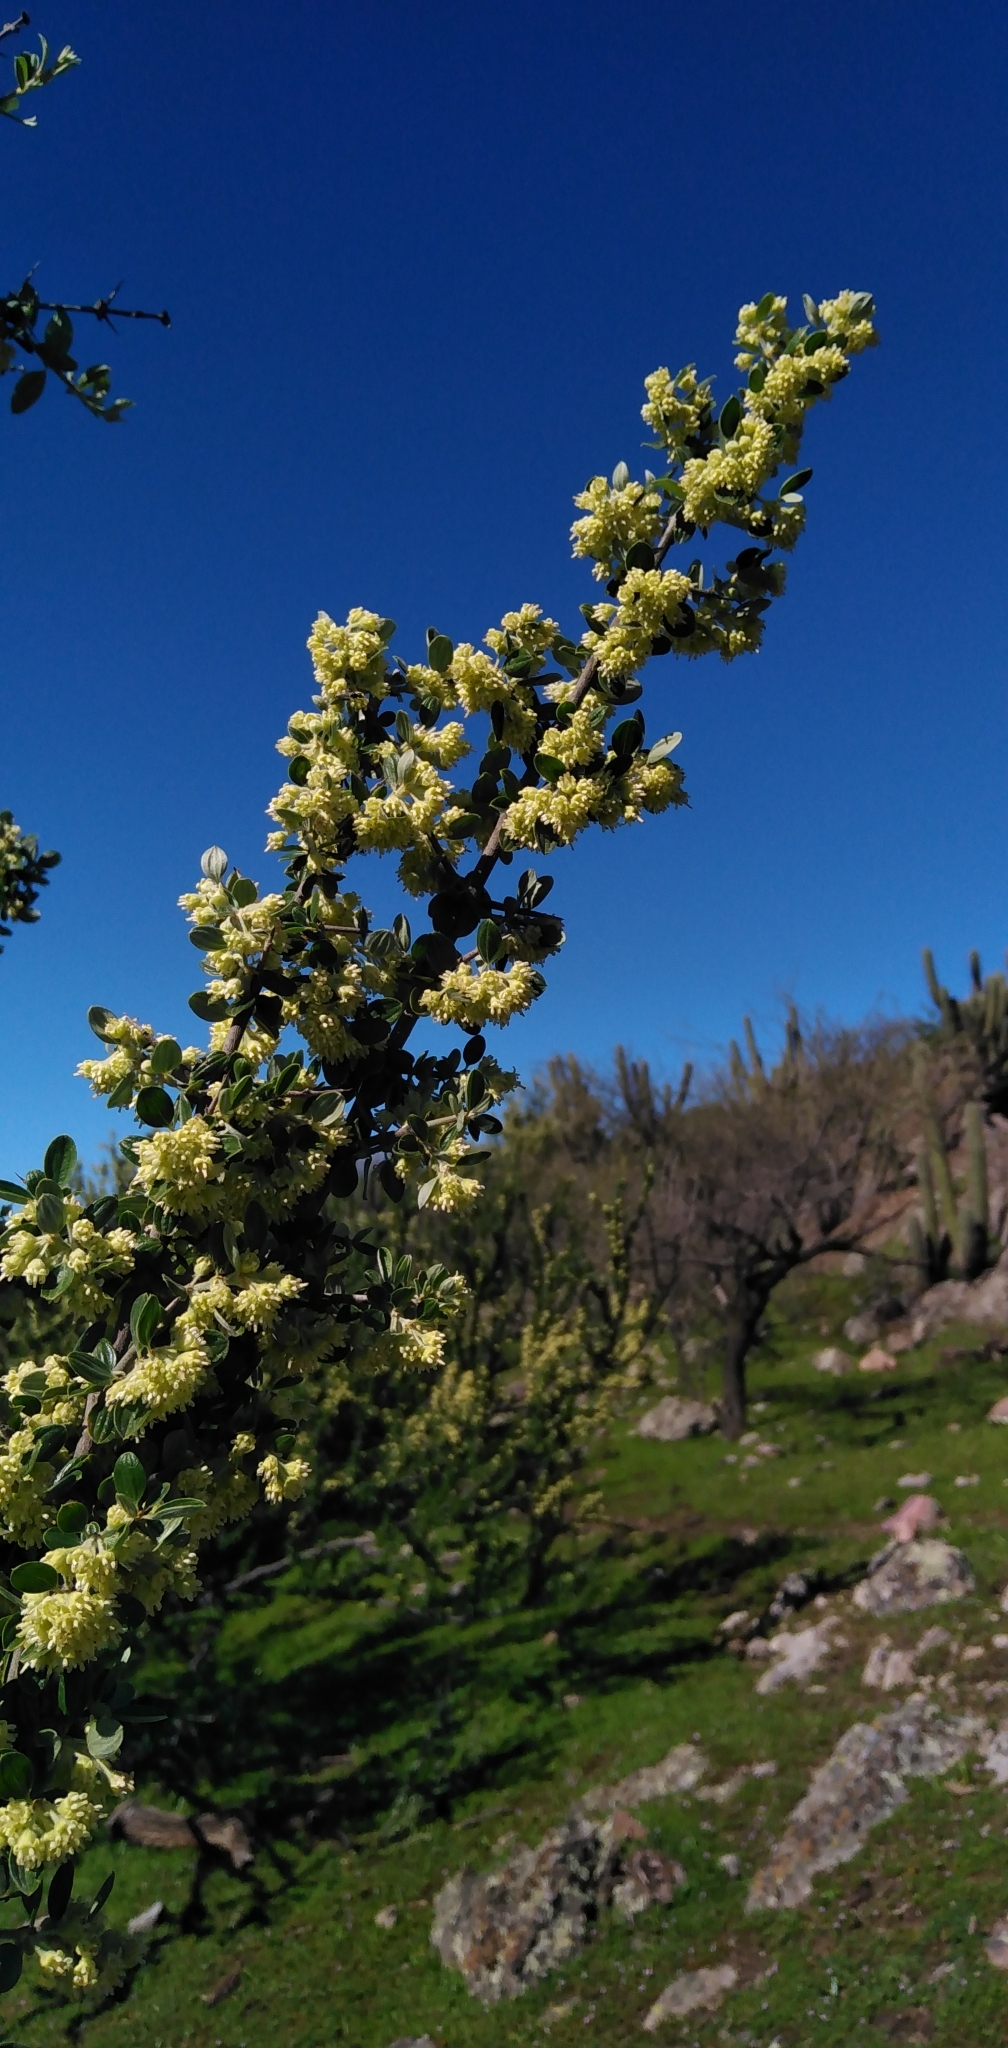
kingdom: Plantae
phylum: Tracheophyta
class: Magnoliopsida
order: Rosales
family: Rhamnaceae
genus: Trevoa
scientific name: Trevoa quinquenervia
